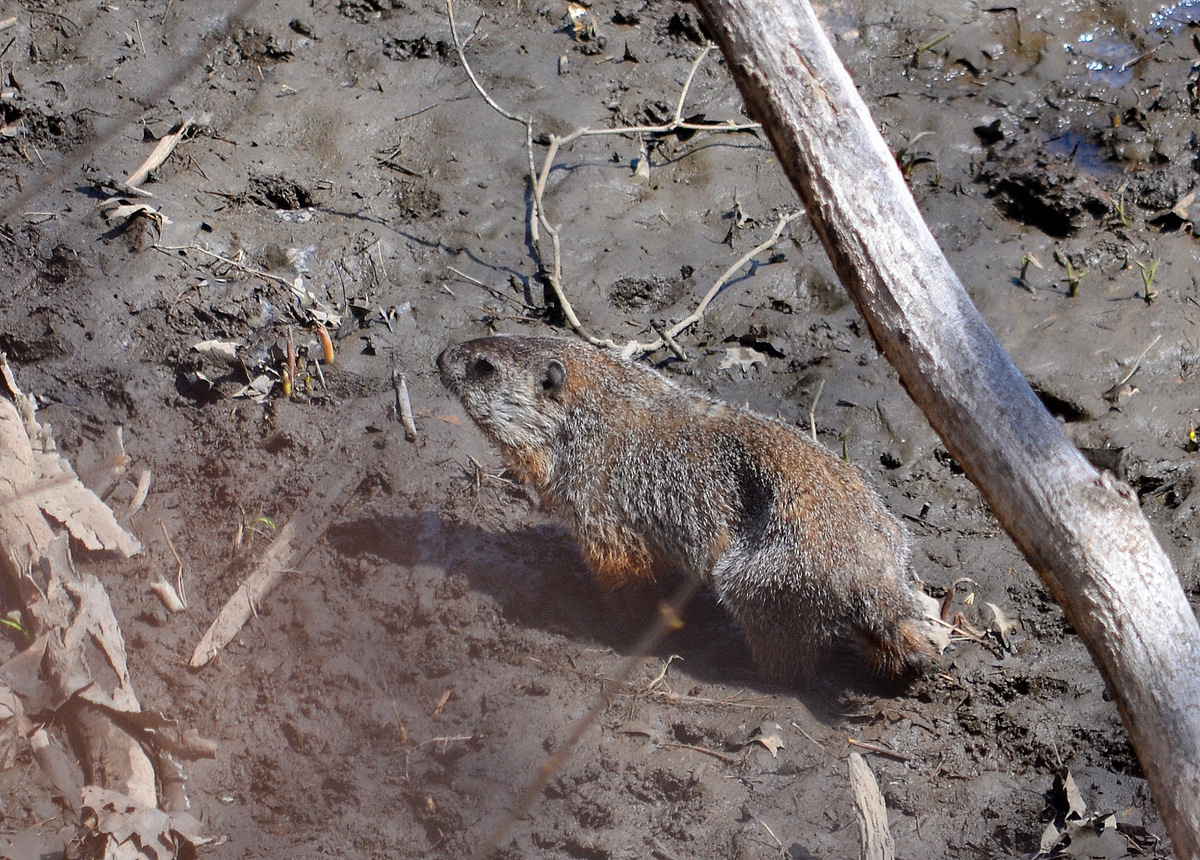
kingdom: Animalia
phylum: Chordata
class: Mammalia
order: Rodentia
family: Sciuridae
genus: Marmota
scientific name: Marmota monax
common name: Groundhog
